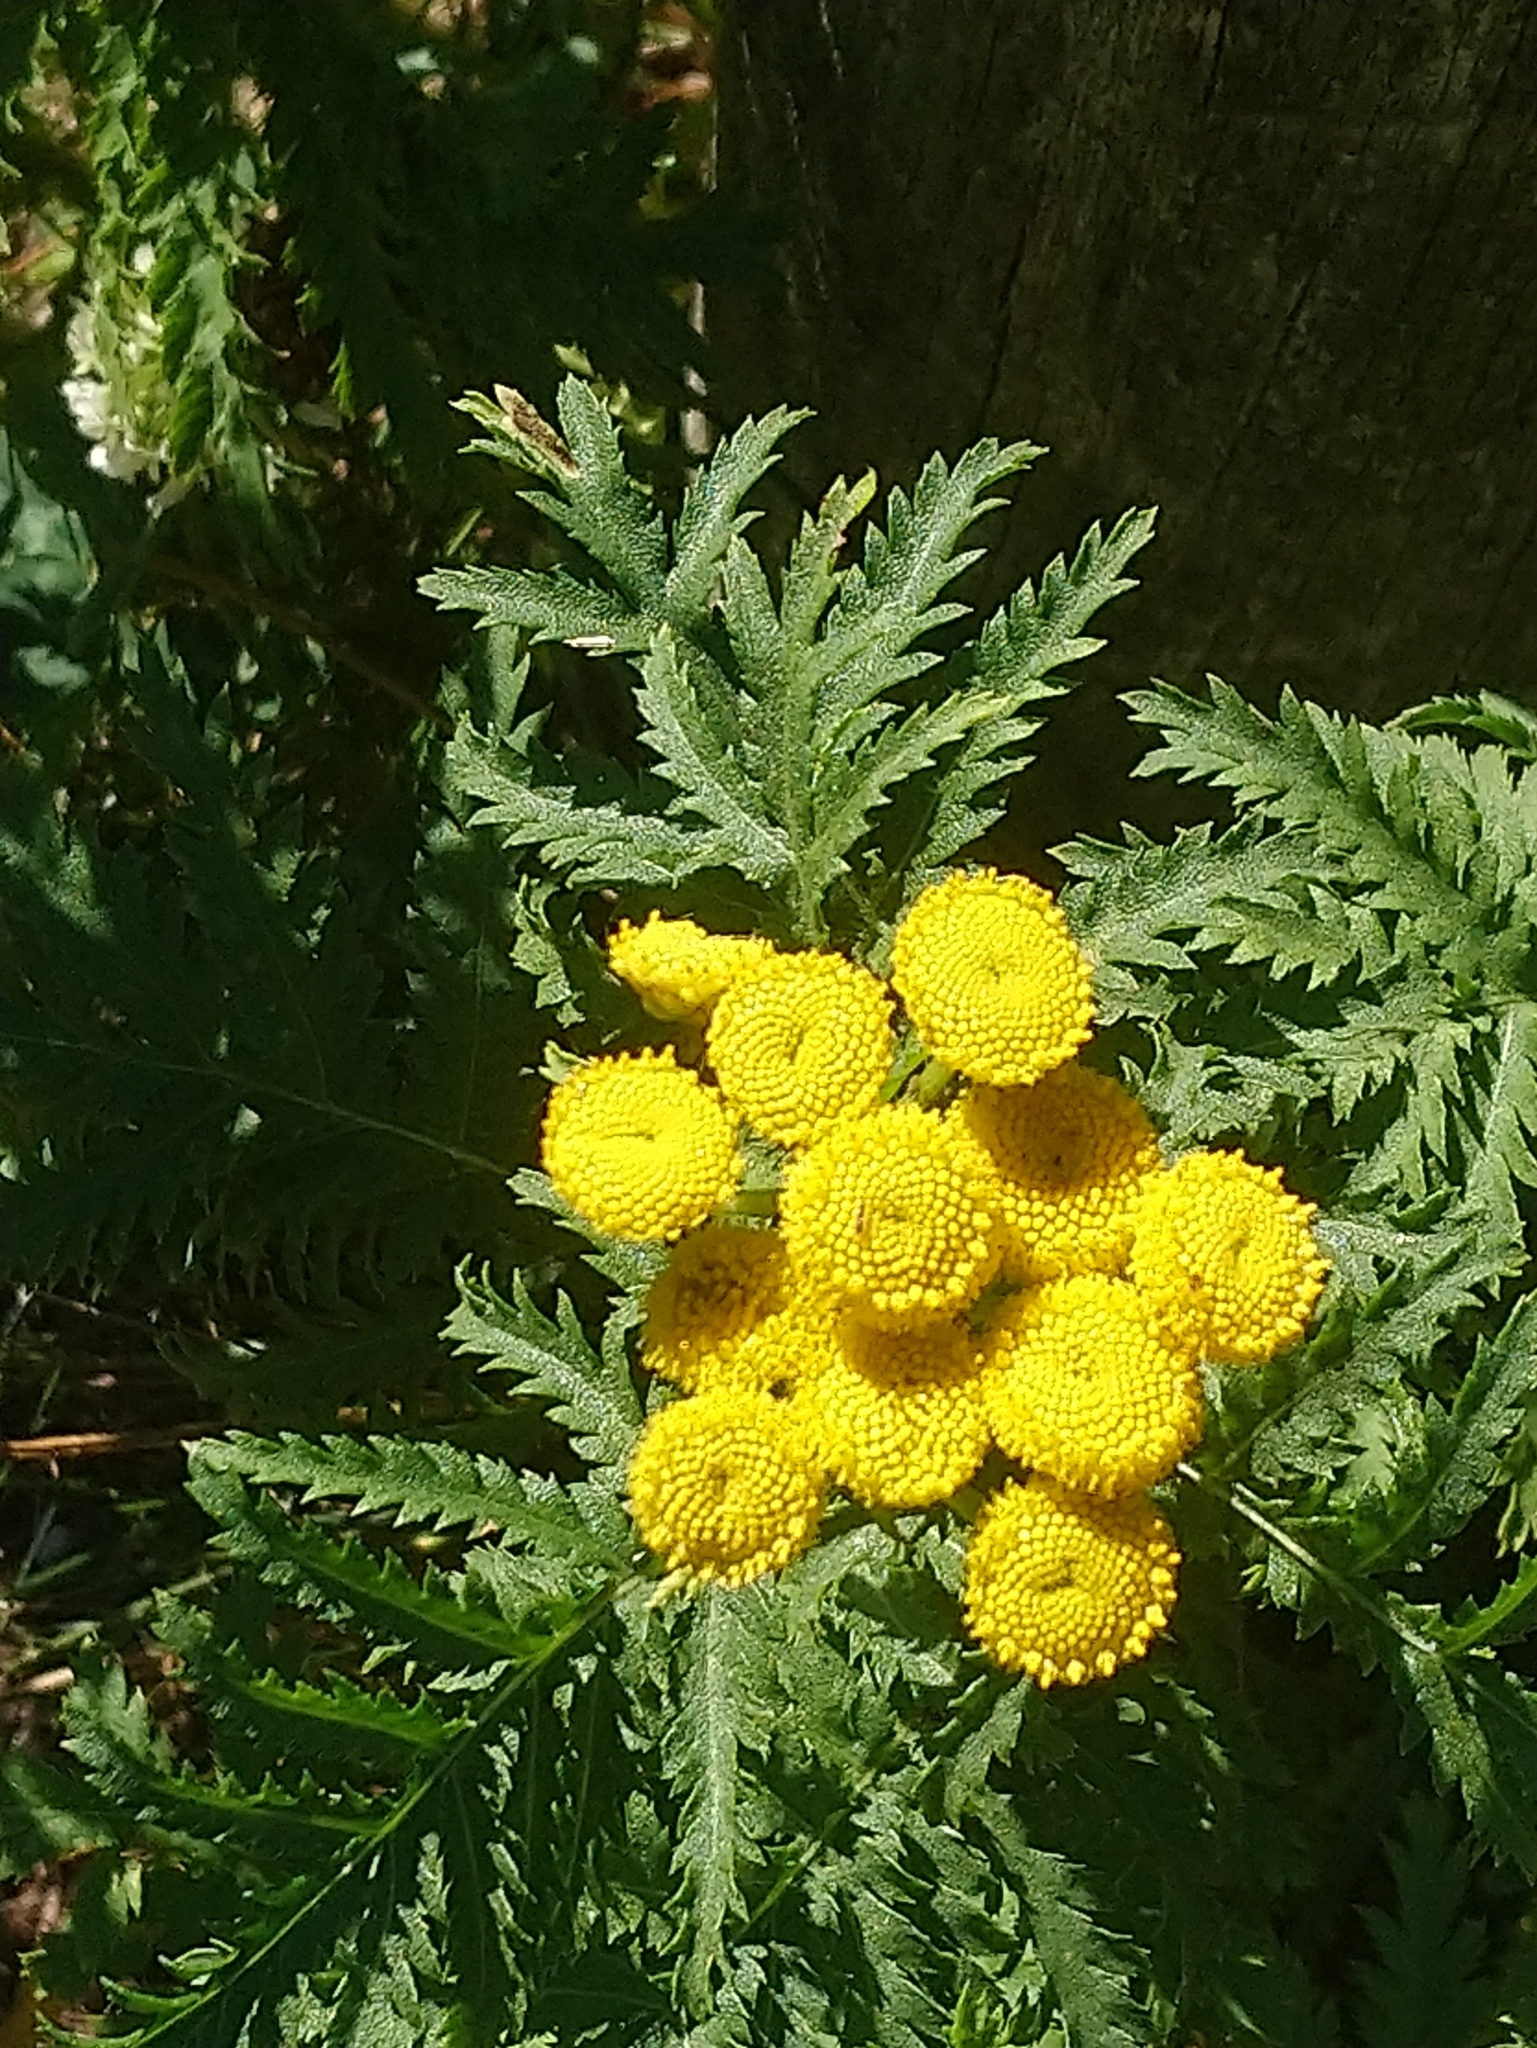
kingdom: Plantae
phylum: Tracheophyta
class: Magnoliopsida
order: Asterales
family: Asteraceae
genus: Tanacetum
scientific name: Tanacetum vulgare
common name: Common tansy
